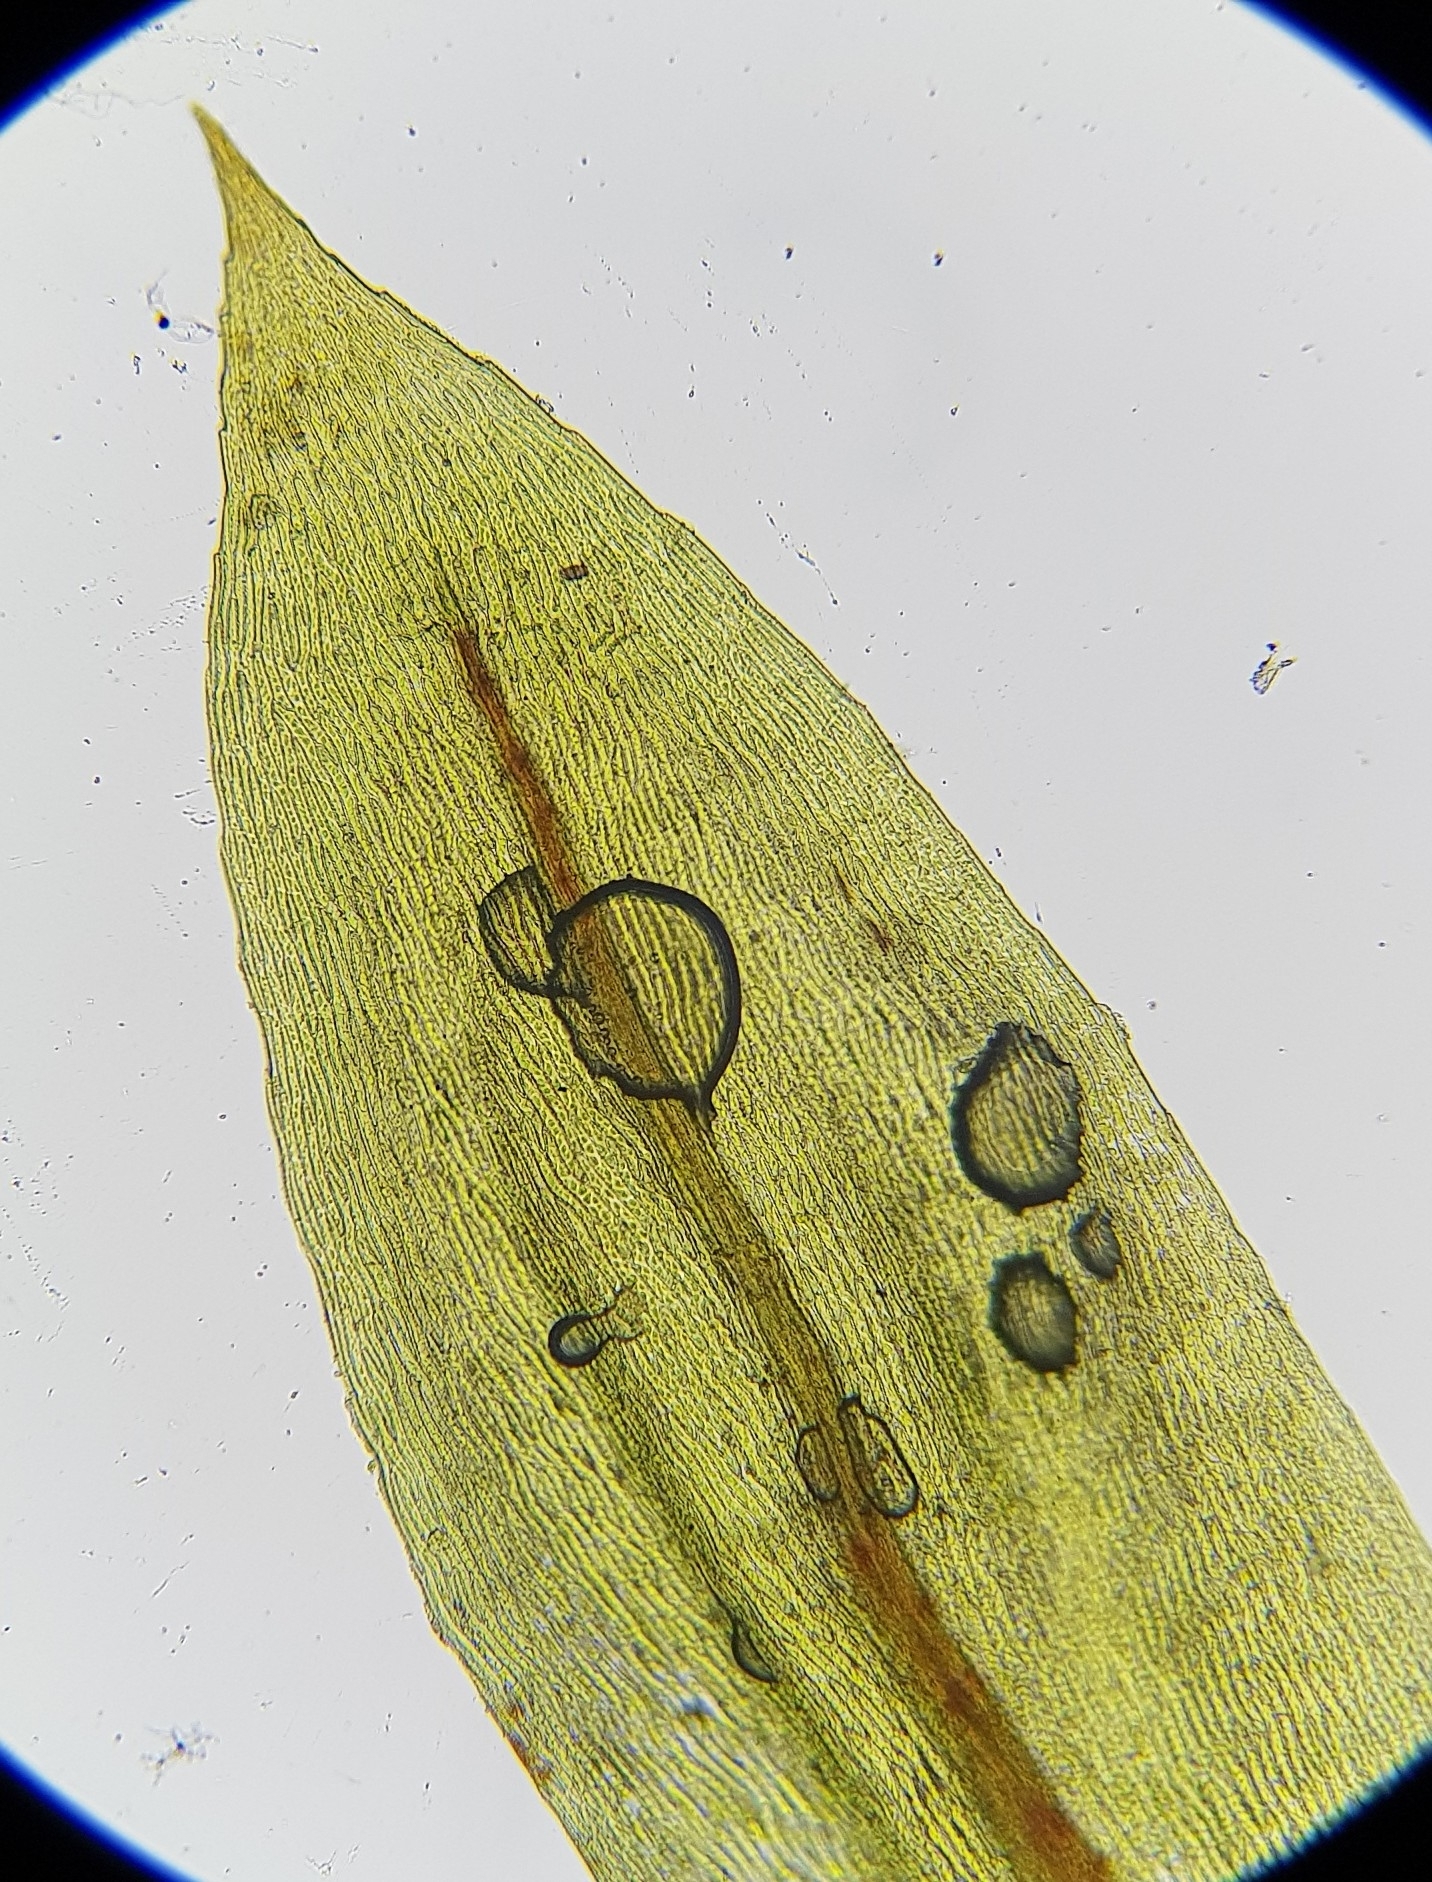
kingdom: Plantae
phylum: Bryophyta
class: Bryopsida
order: Bryales
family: Mniaceae
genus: Pohlia
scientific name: Pohlia cruda
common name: Opal nodding moss
